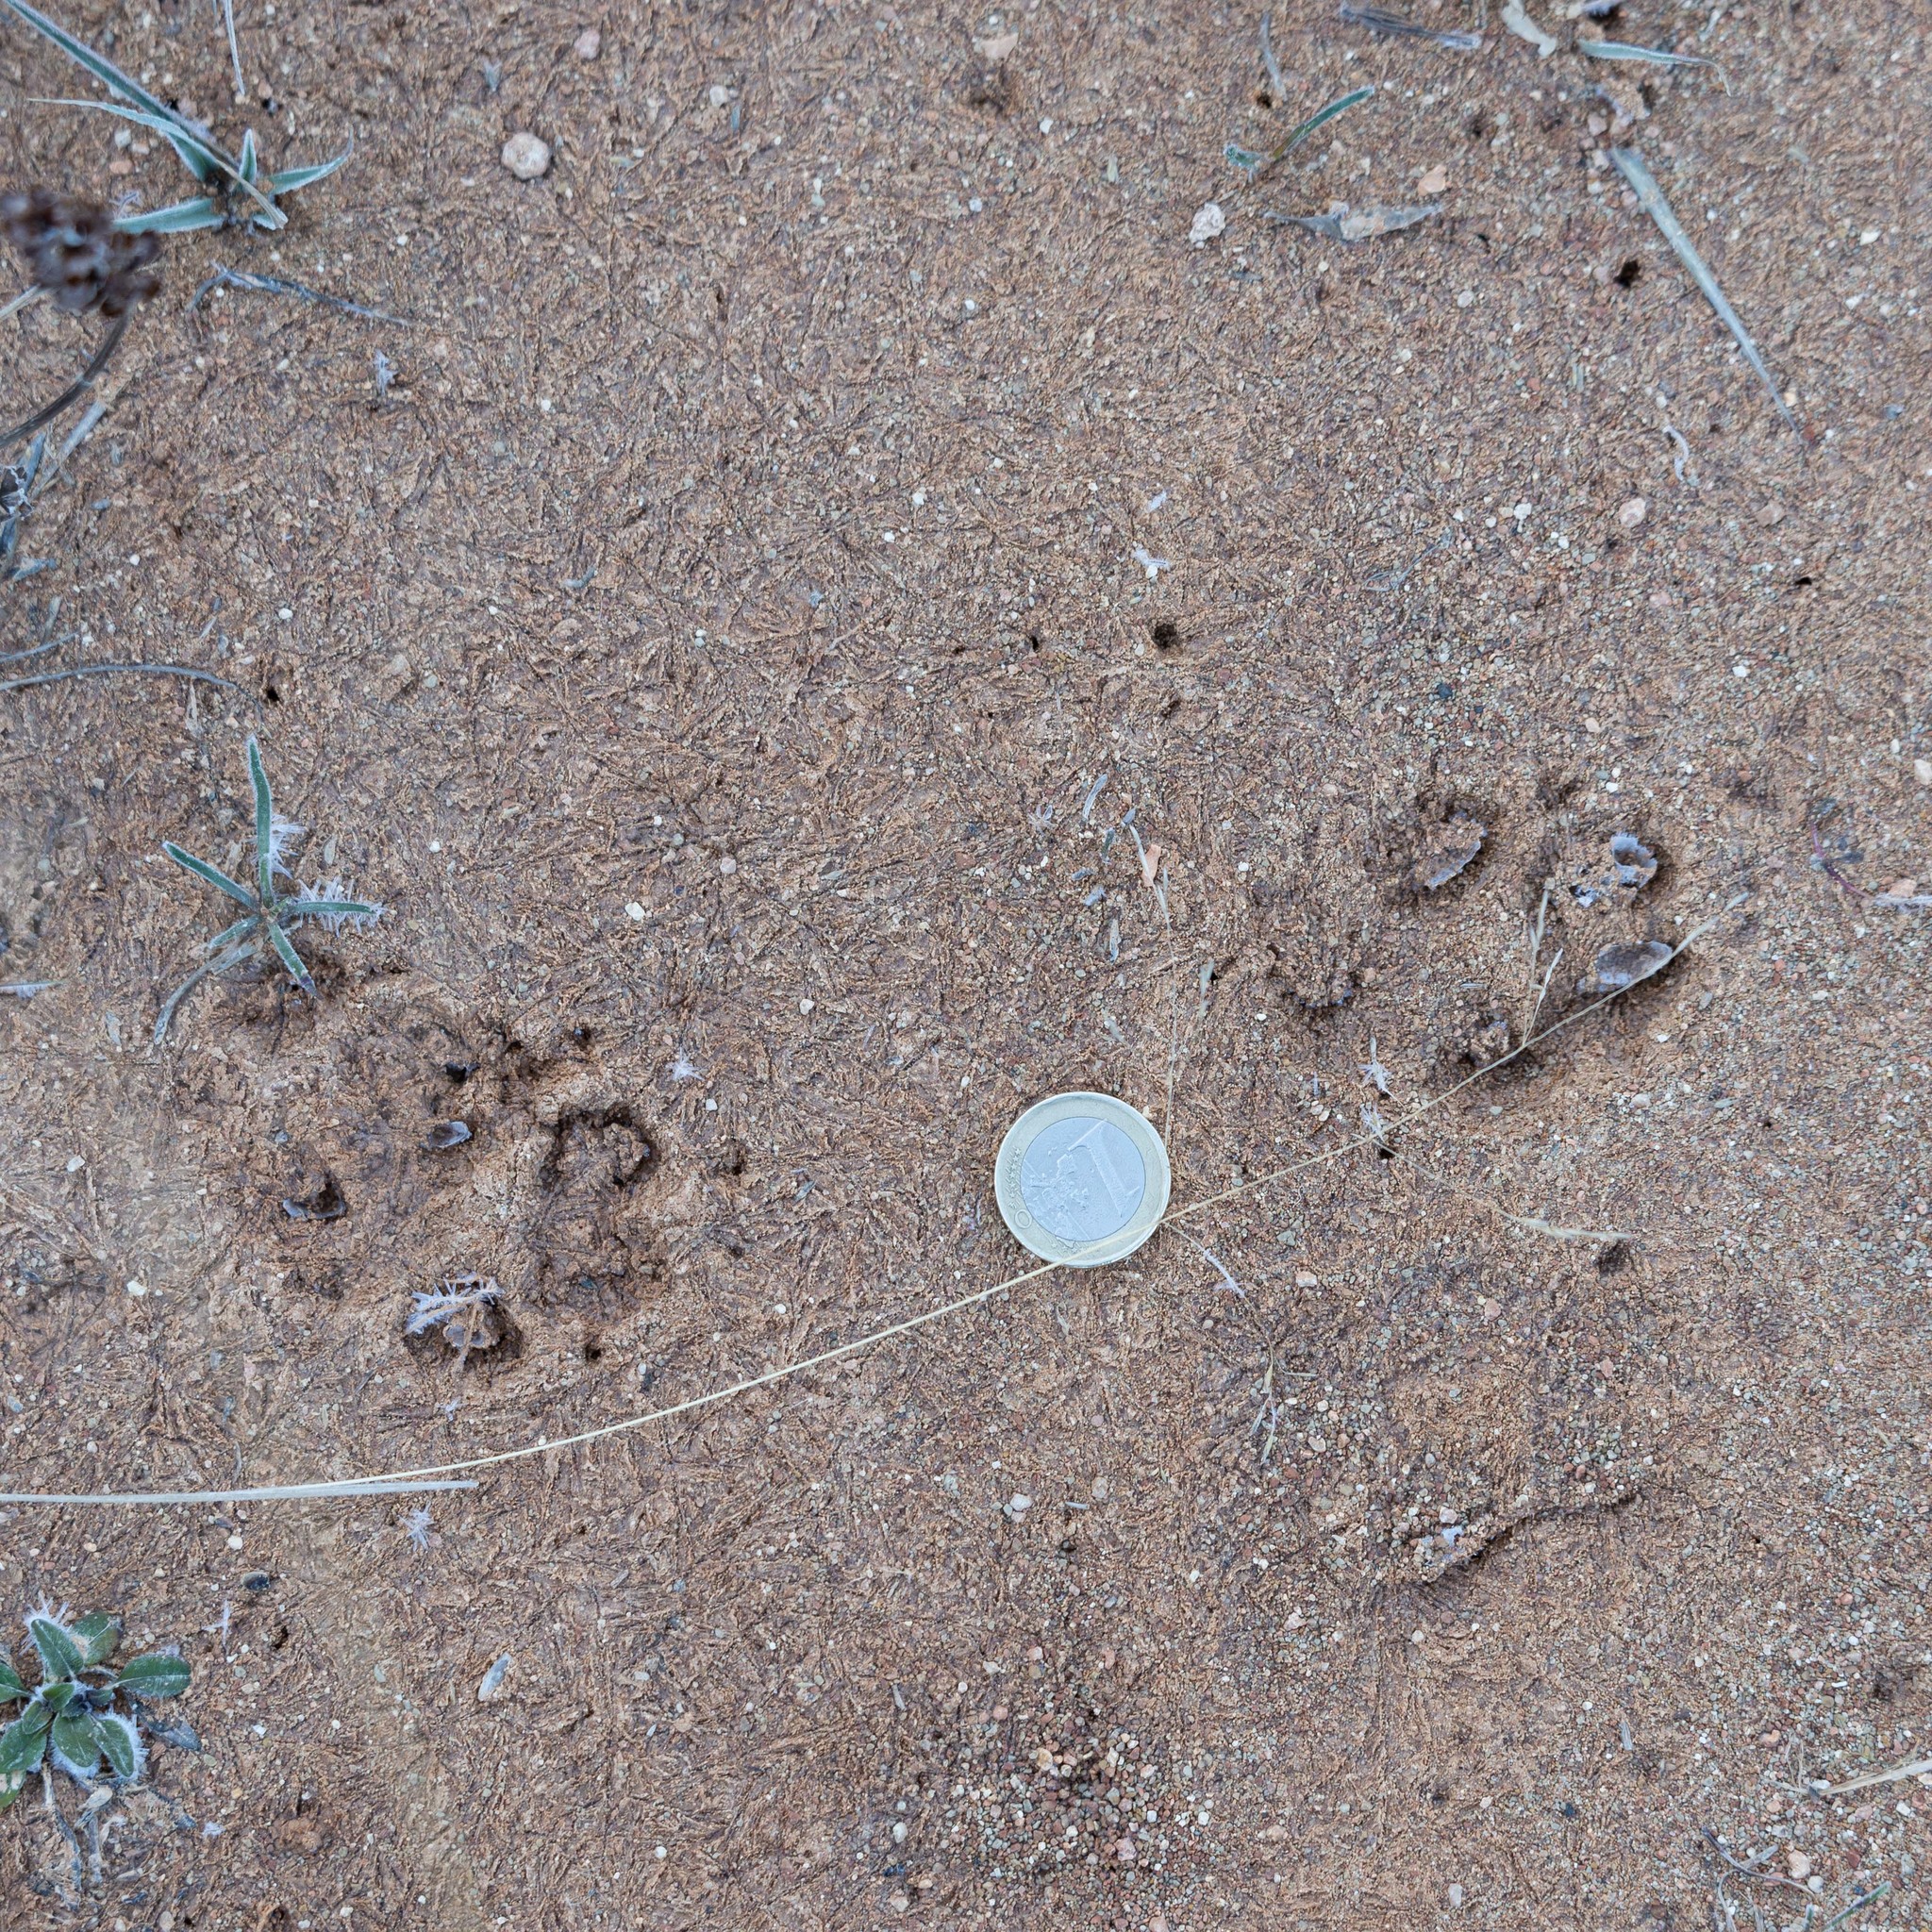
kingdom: Animalia
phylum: Chordata
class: Mammalia
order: Carnivora
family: Canidae
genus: Vulpes
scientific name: Vulpes vulpes
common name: Red fox
